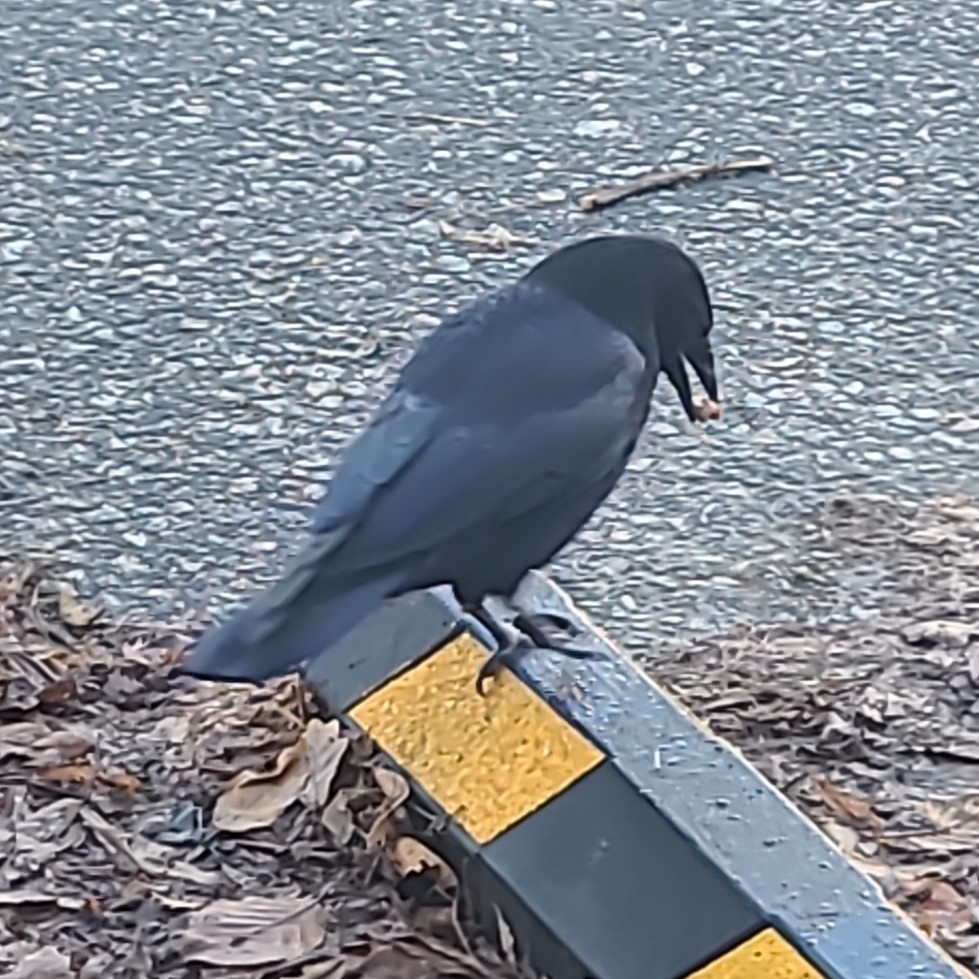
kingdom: Animalia
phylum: Chordata
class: Aves
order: Passeriformes
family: Corvidae
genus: Corvus
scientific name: Corvus brachyrhynchos
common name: American crow
